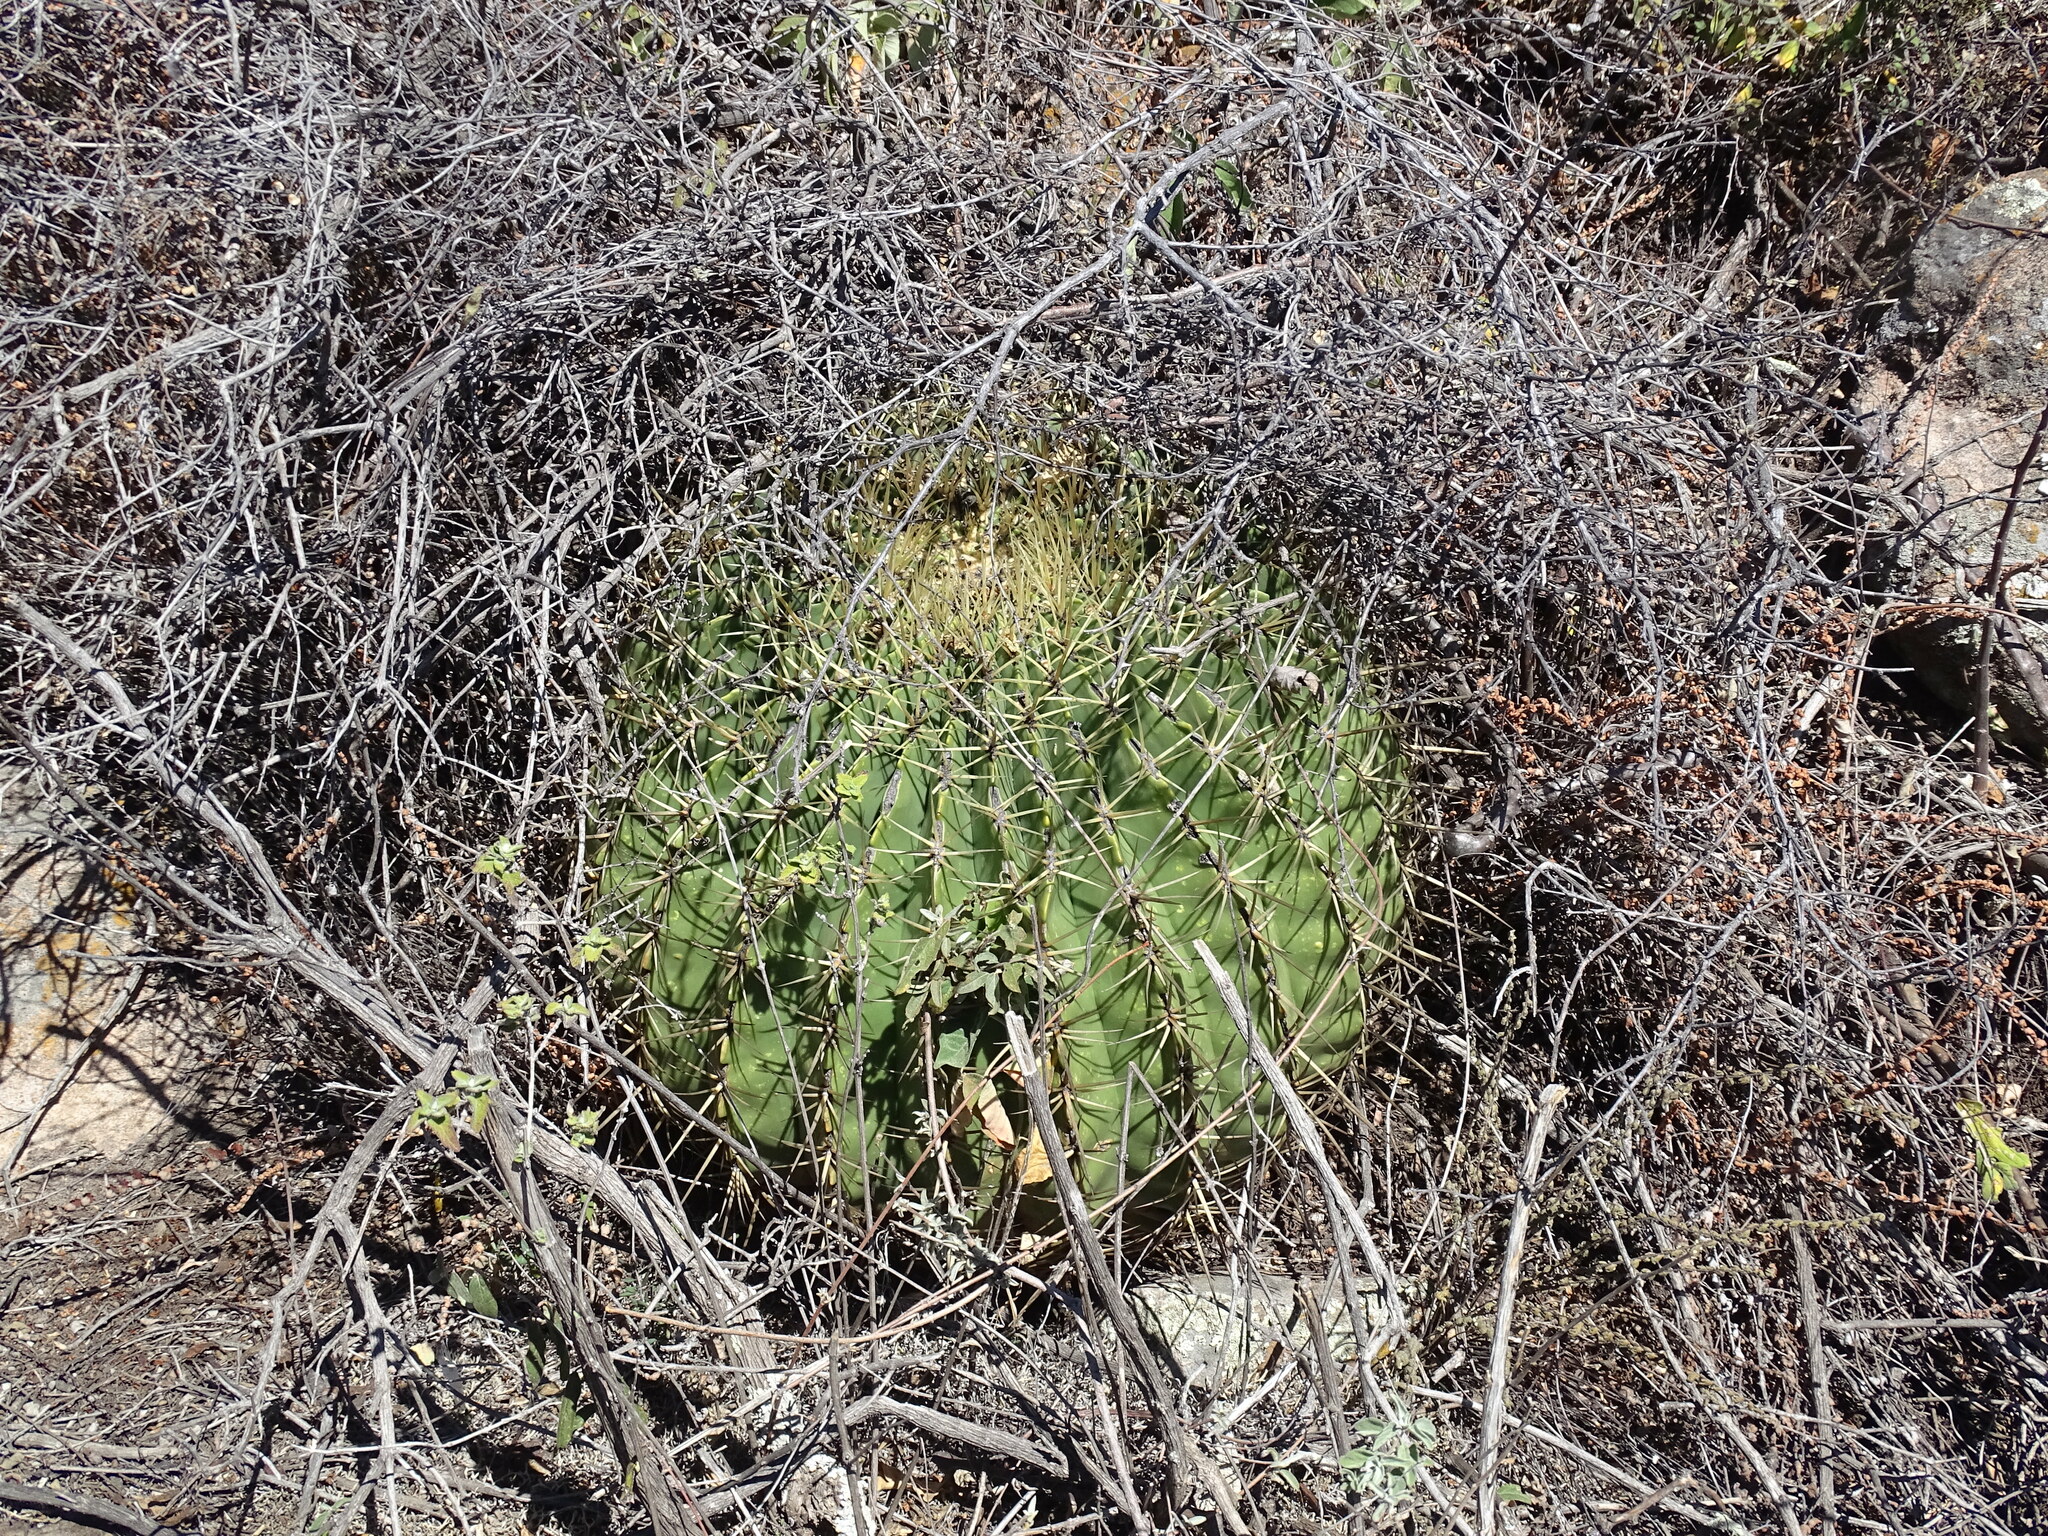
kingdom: Plantae
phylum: Tracheophyta
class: Magnoliopsida
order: Caryophyllales
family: Cactaceae
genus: Bisnaga
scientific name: Bisnaga histrix
